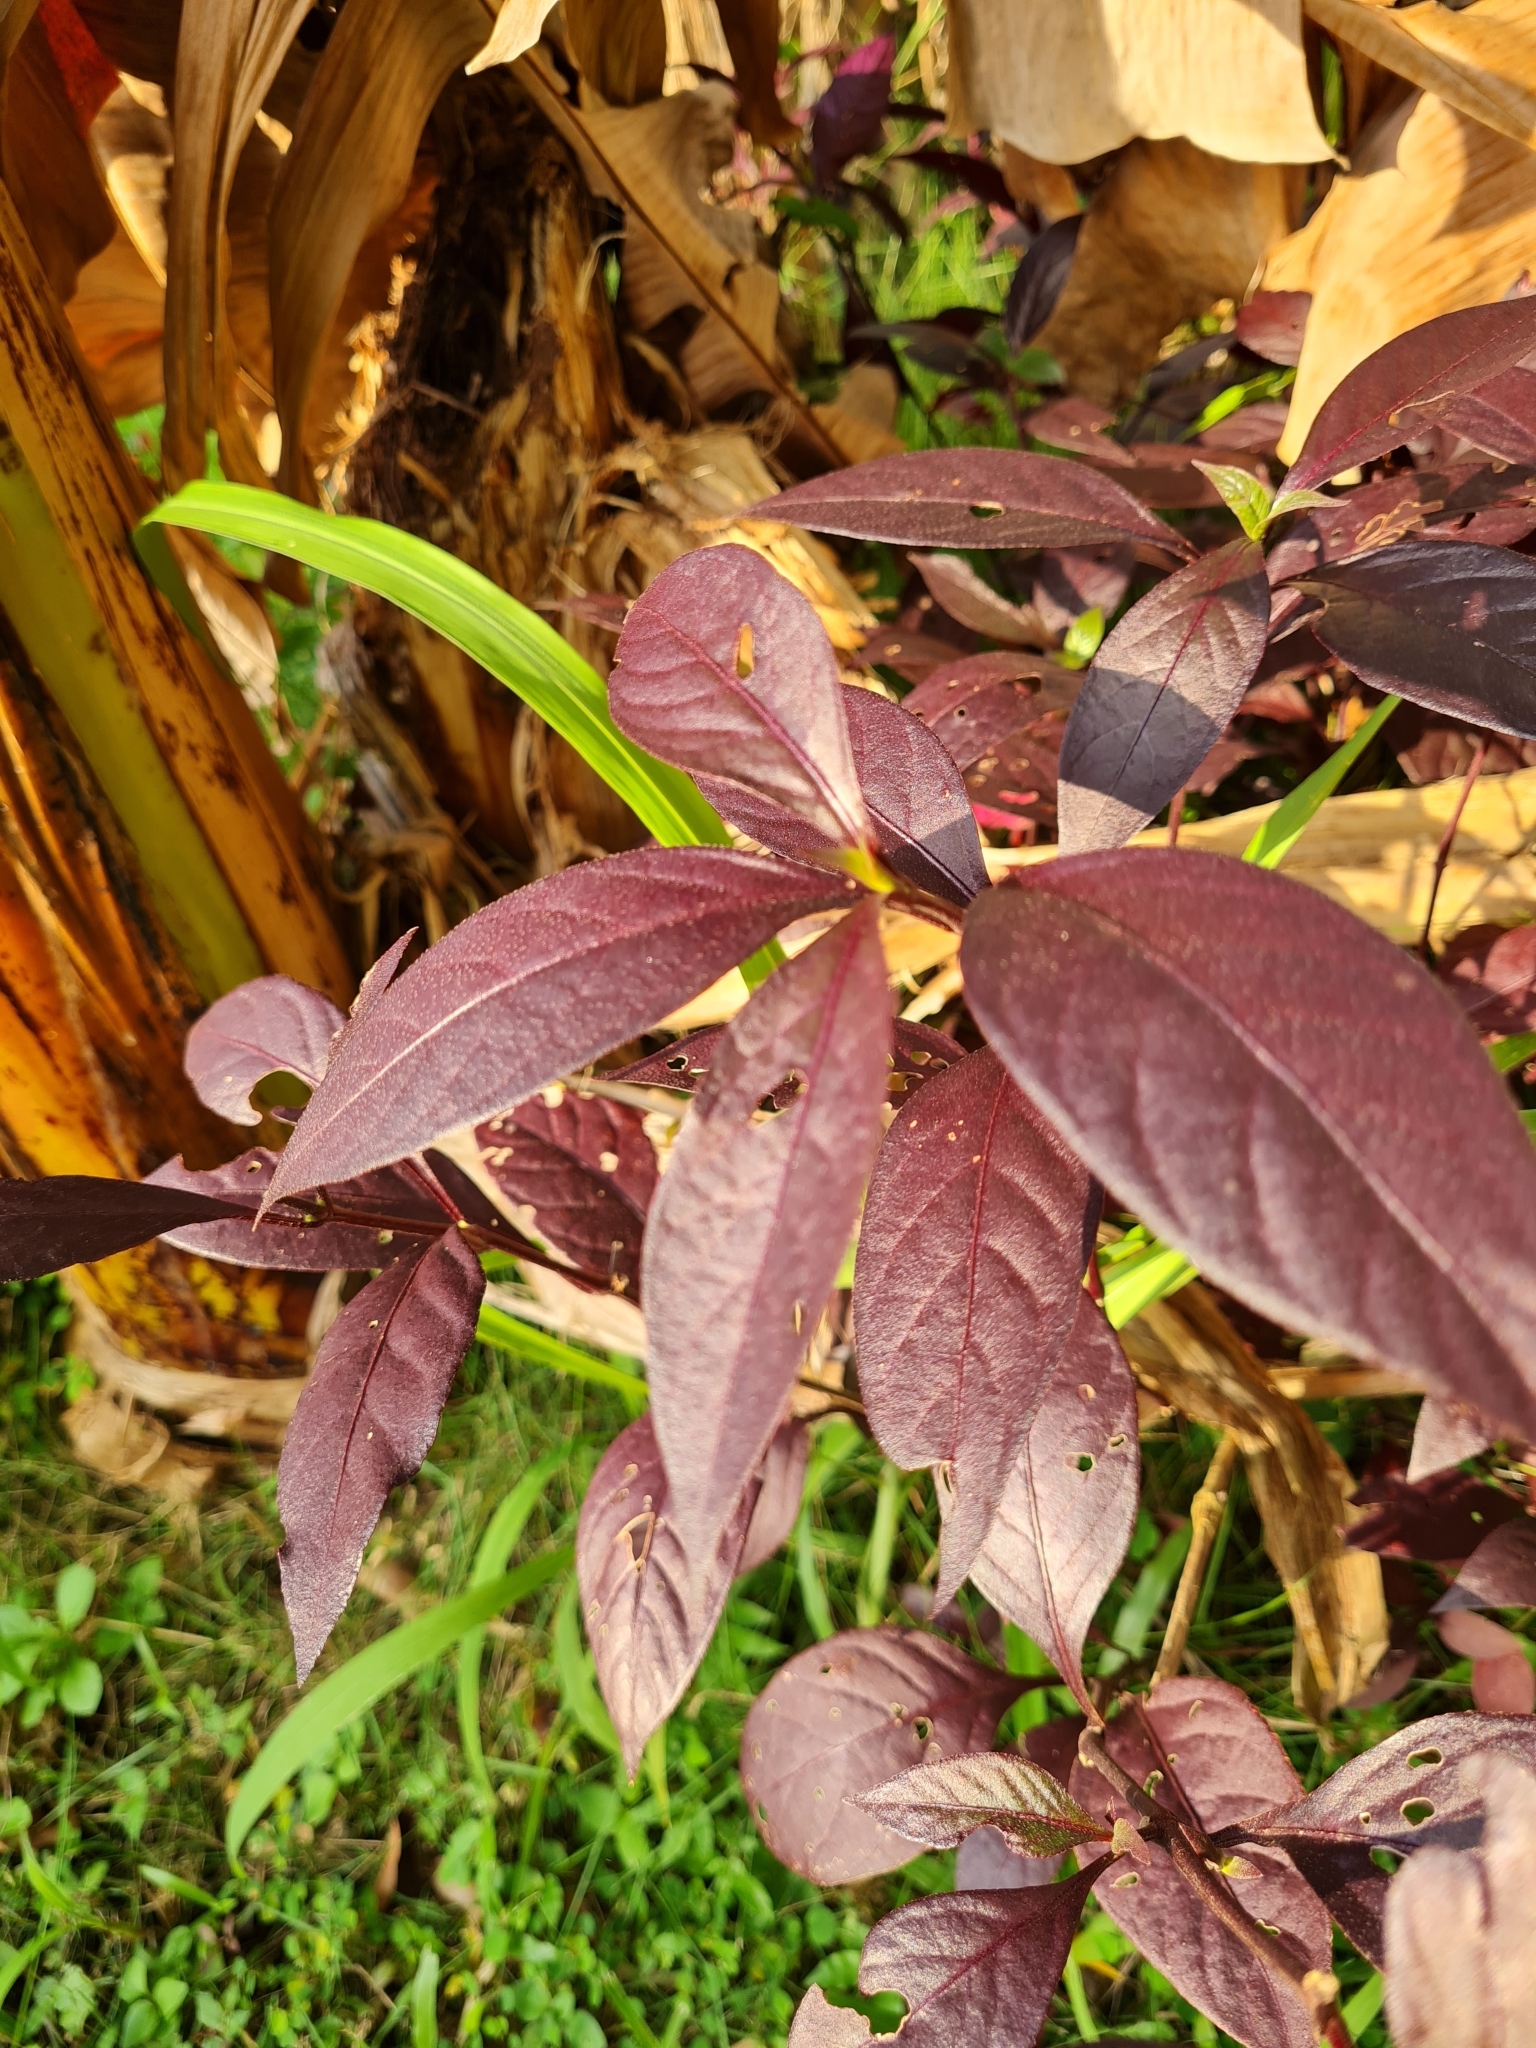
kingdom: Plantae
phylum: Tracheophyta
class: Magnoliopsida
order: Caryophyllales
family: Amaranthaceae
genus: Alternanthera
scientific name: Alternanthera brasiliana
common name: Brazilian joyweed
